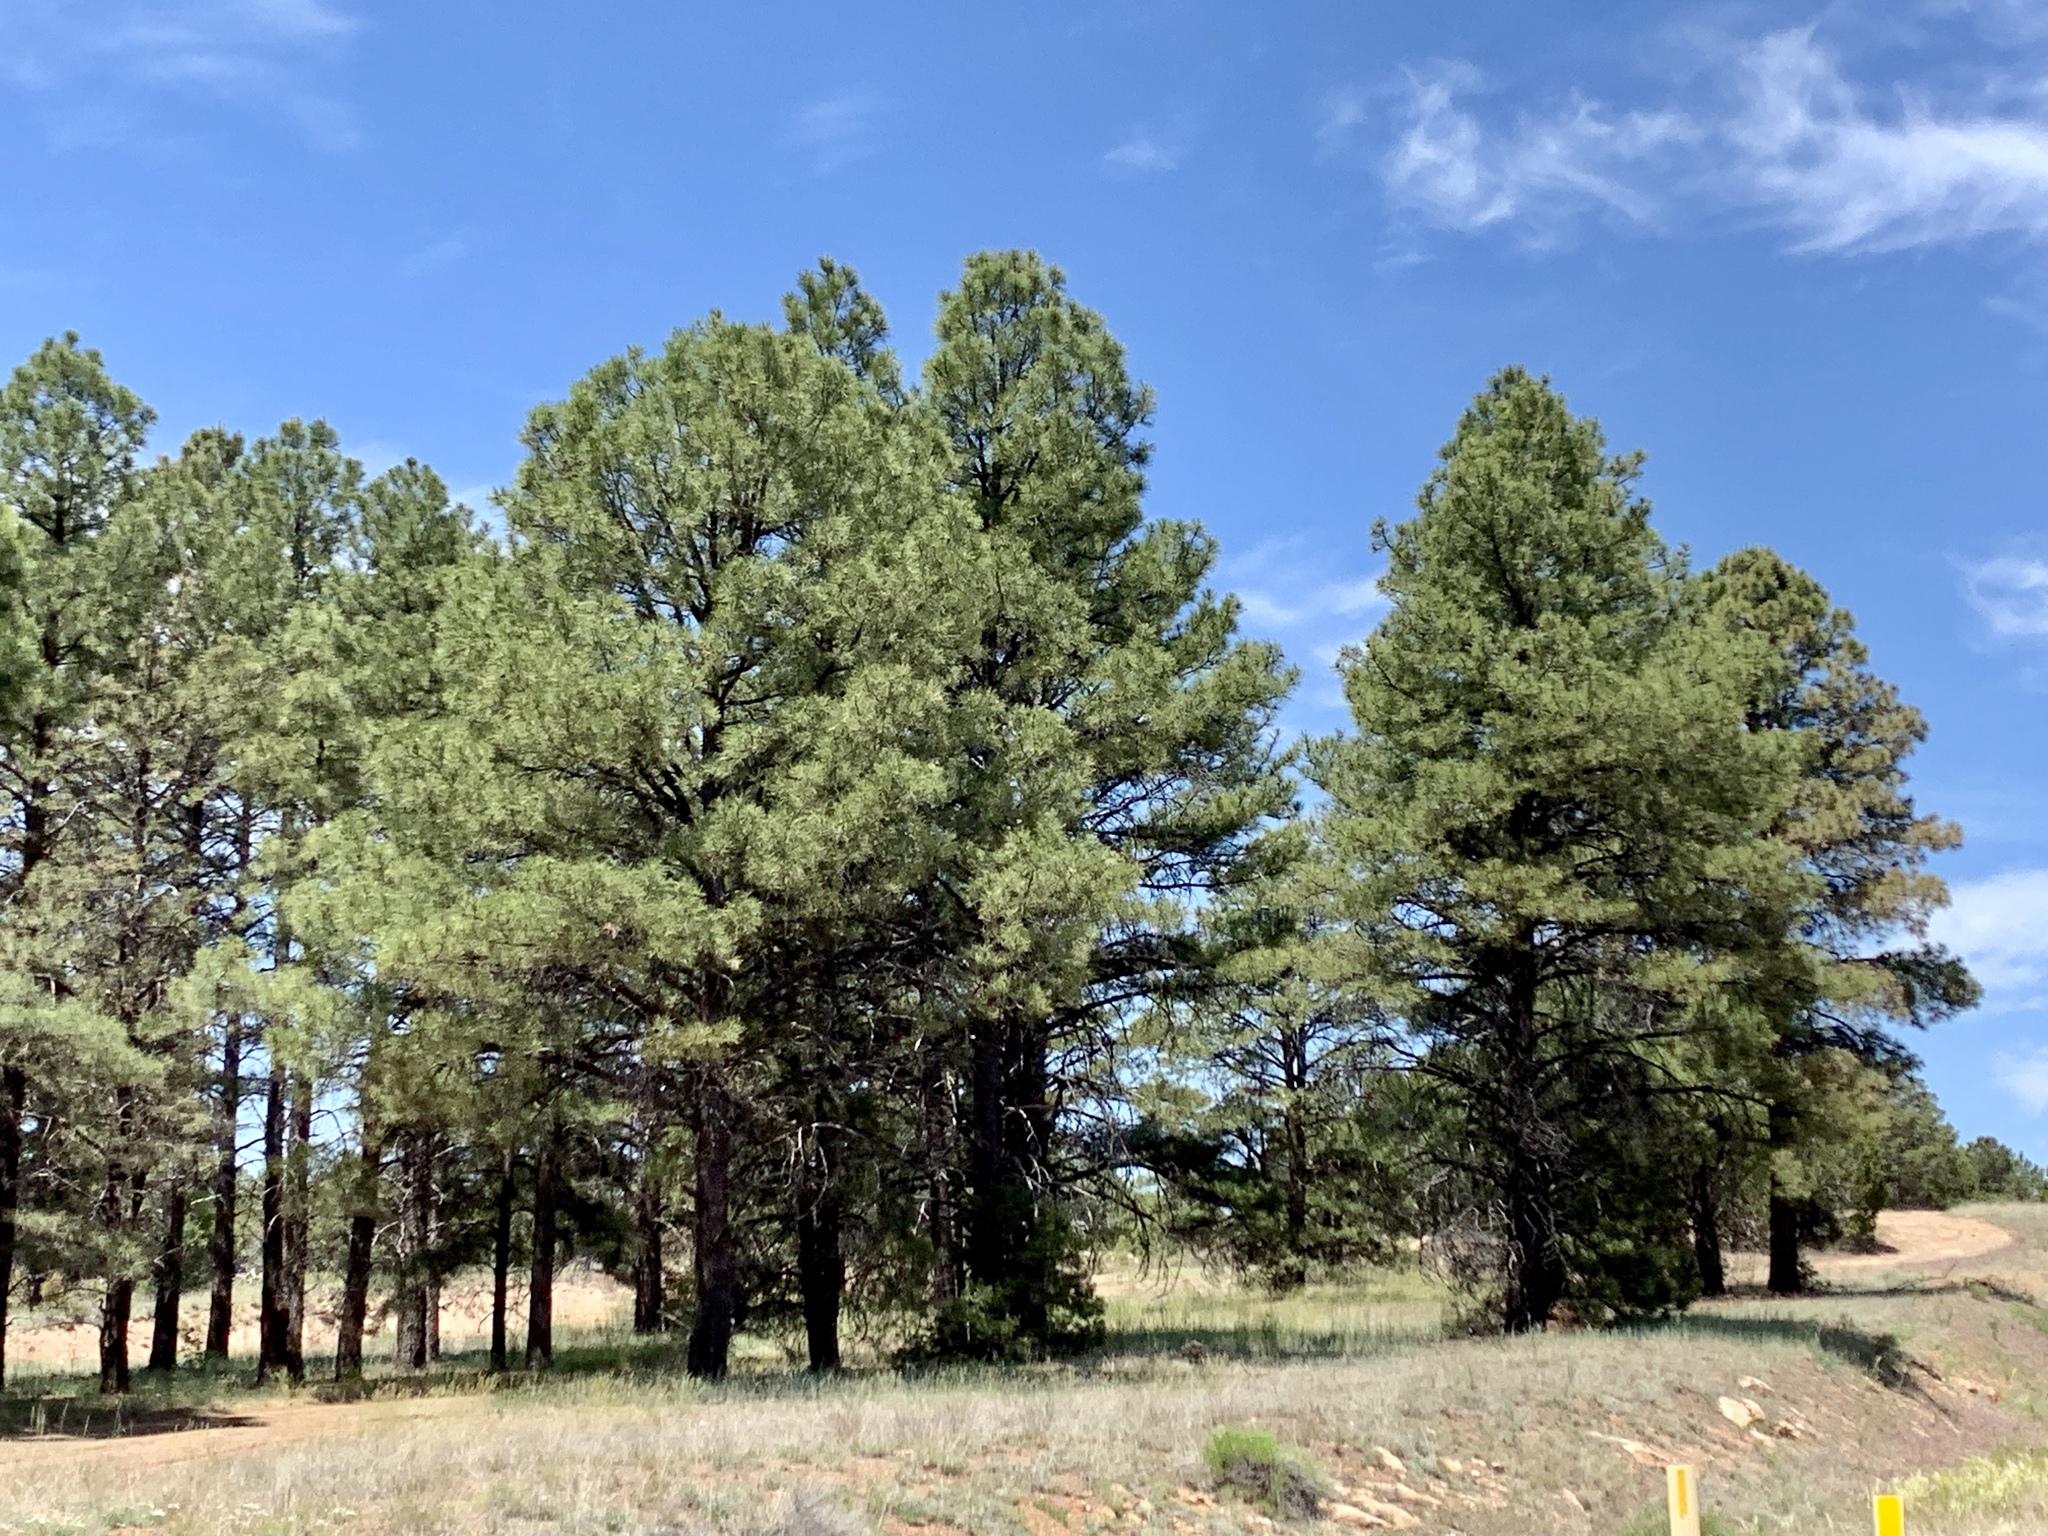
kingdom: Plantae
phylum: Tracheophyta
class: Pinopsida
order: Pinales
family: Pinaceae
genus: Pinus
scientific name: Pinus ponderosa
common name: Western yellow-pine
